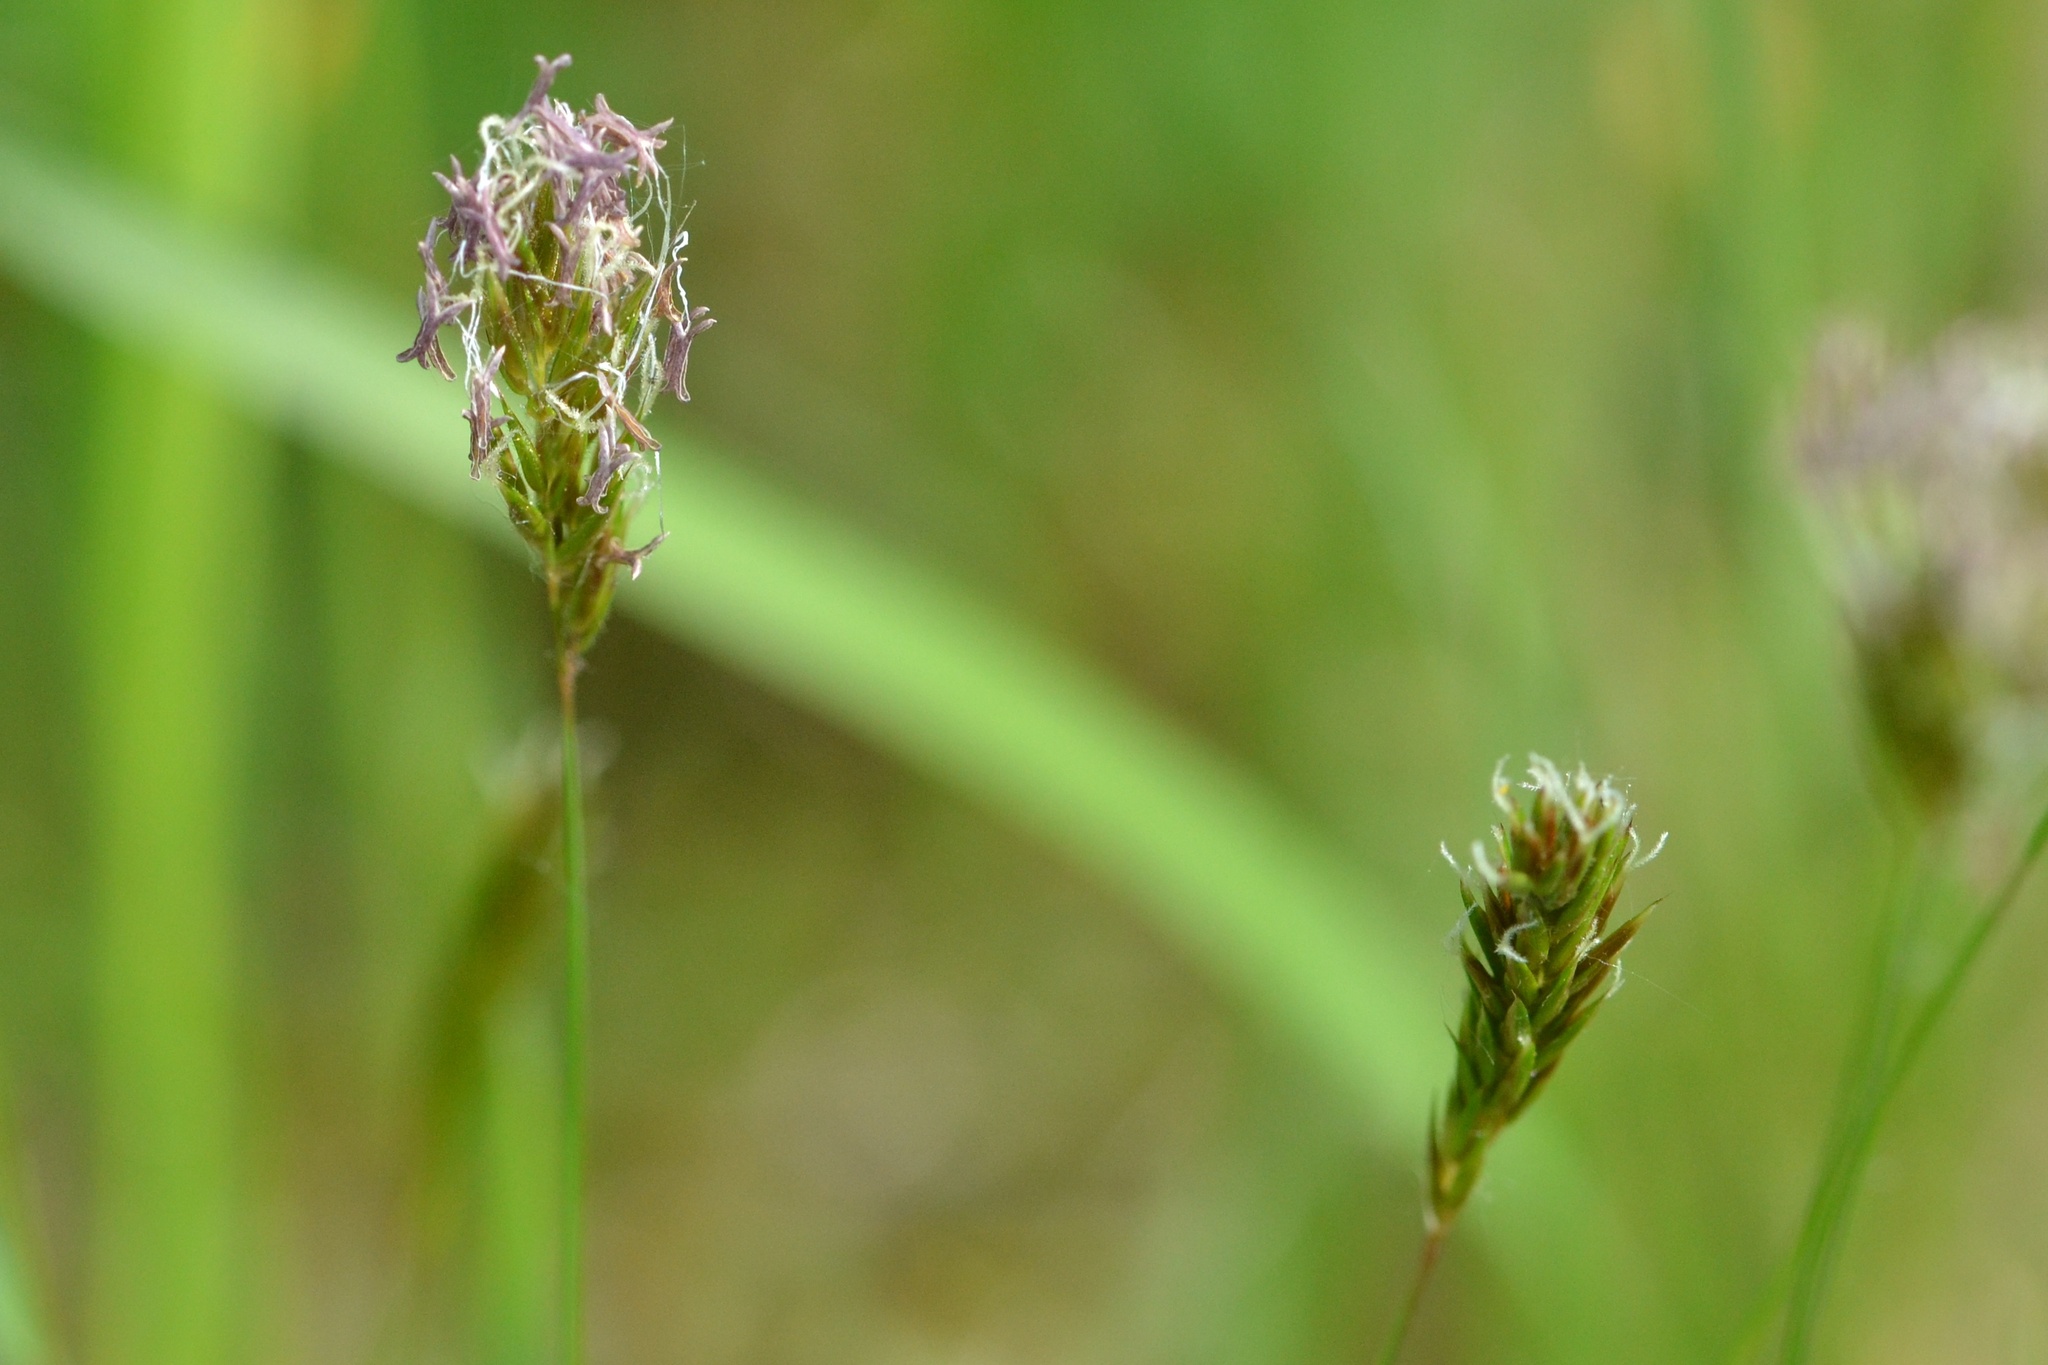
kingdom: Plantae
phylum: Tracheophyta
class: Liliopsida
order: Poales
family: Poaceae
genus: Anthoxanthum
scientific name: Anthoxanthum odoratum
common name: Sweet vernalgrass
